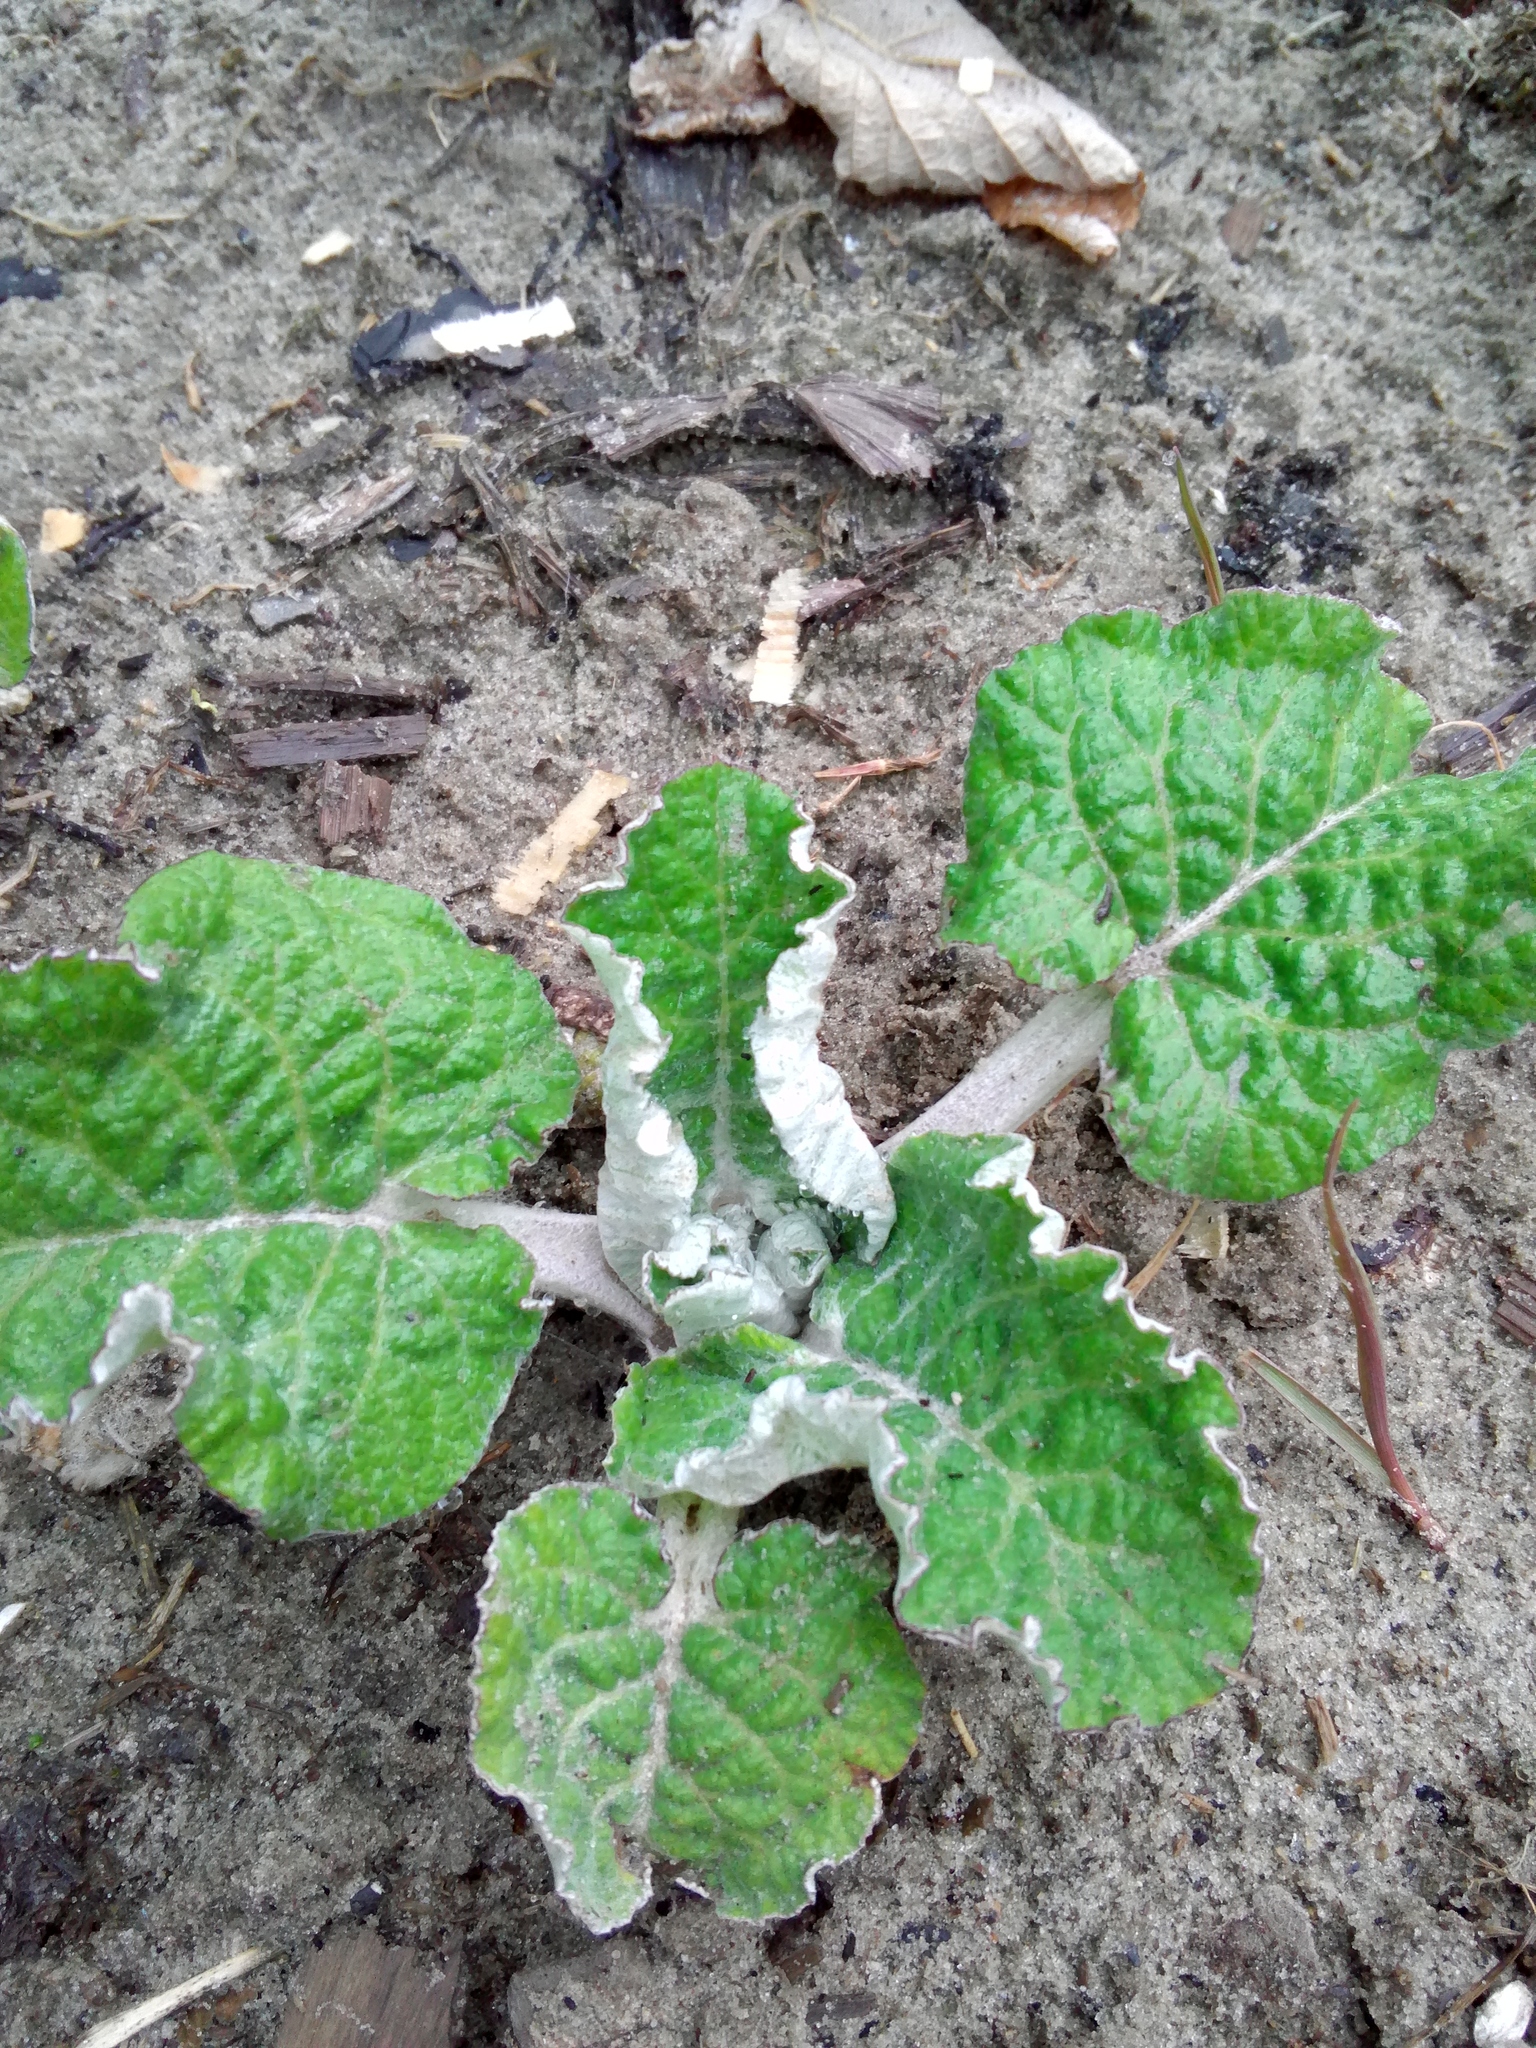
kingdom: Plantae
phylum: Tracheophyta
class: Magnoliopsida
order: Asterales
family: Asteraceae
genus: Arctium
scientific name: Arctium tomentosum
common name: Woolly burdock
